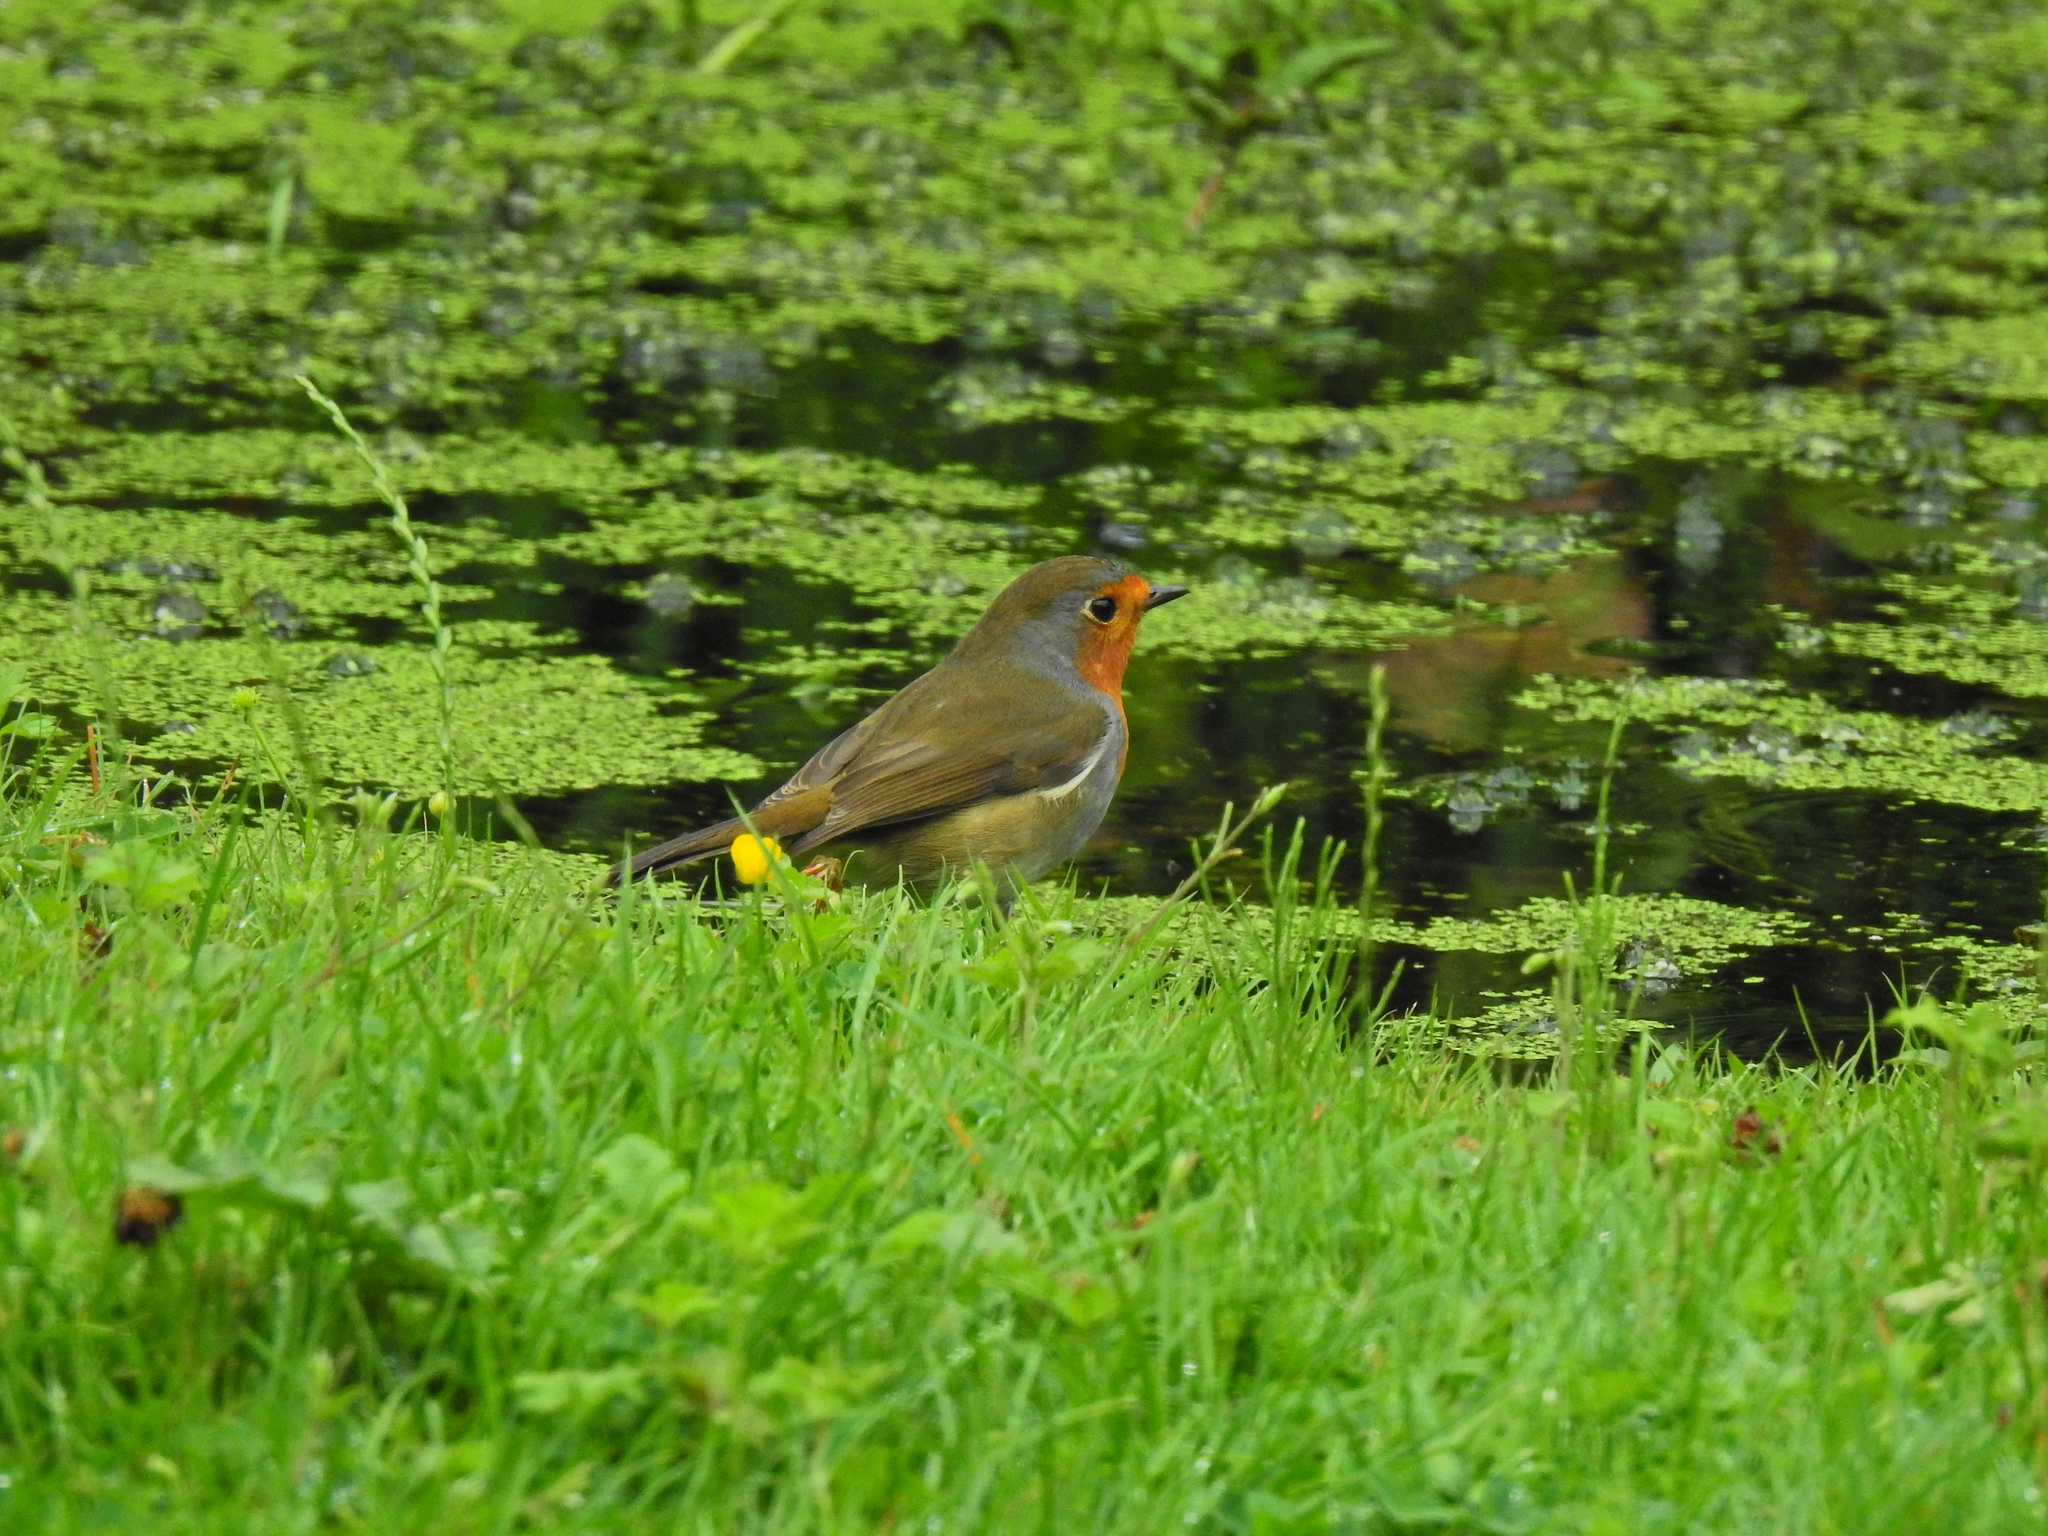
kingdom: Animalia
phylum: Chordata
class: Aves
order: Passeriformes
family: Muscicapidae
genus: Erithacus
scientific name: Erithacus rubecula
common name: European robin
